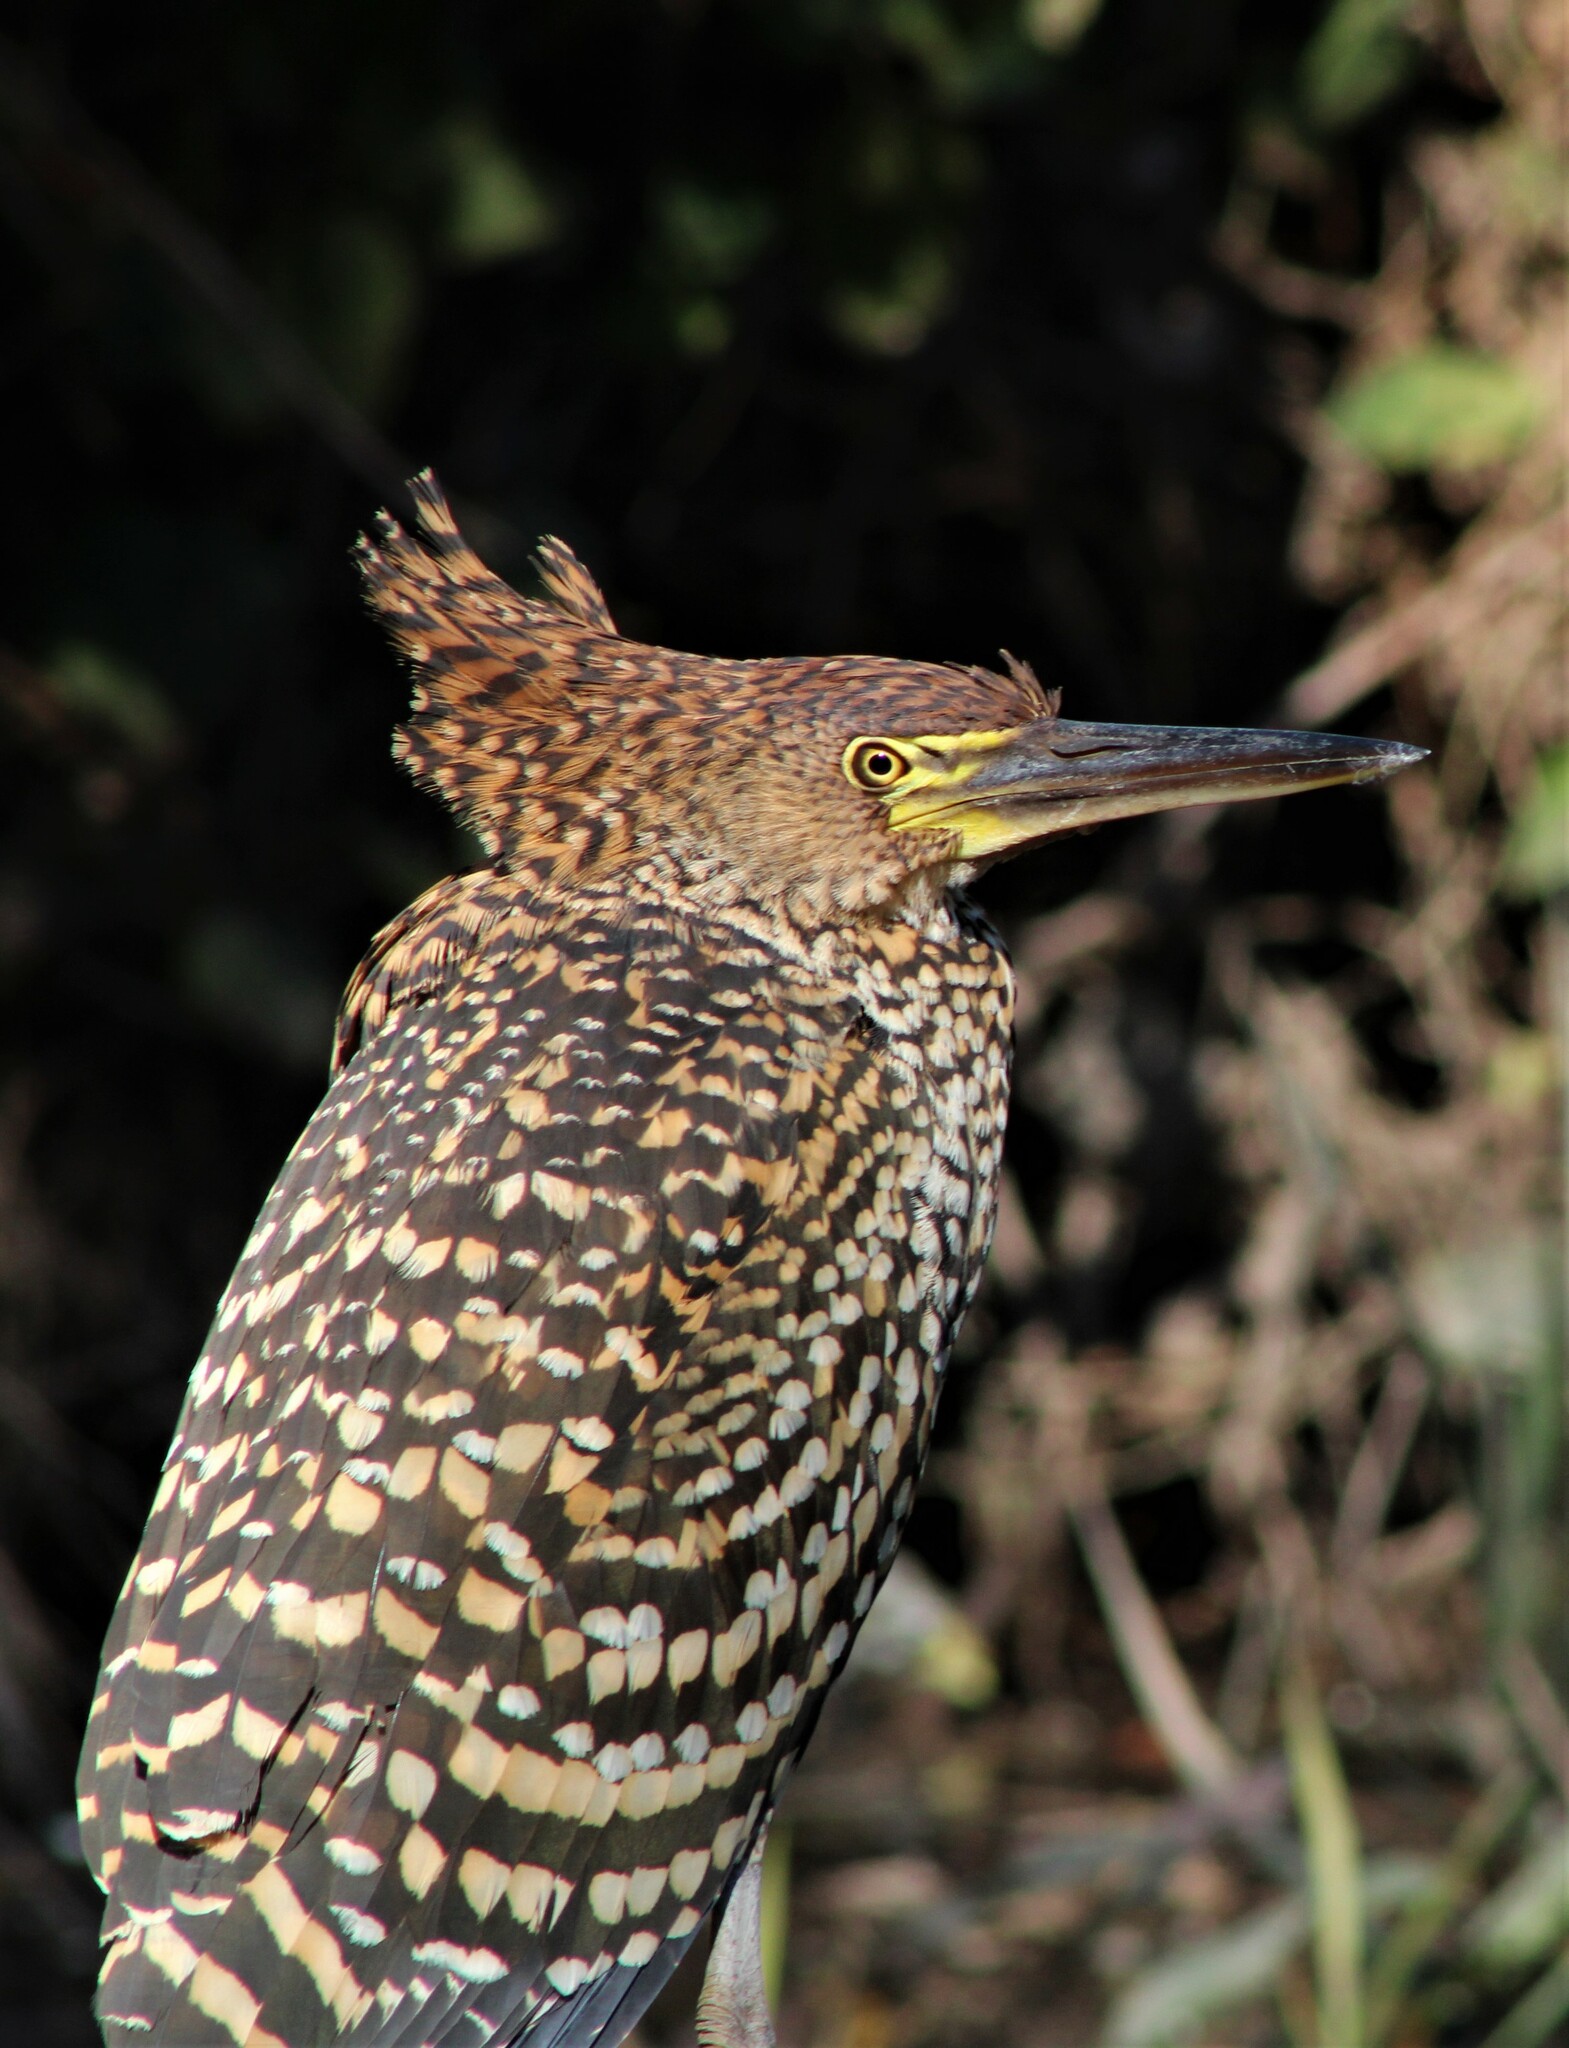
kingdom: Animalia
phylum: Chordata
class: Aves
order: Pelecaniformes
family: Ardeidae
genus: Tigrisoma
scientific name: Tigrisoma lineatum
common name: Rufescent tiger-heron
